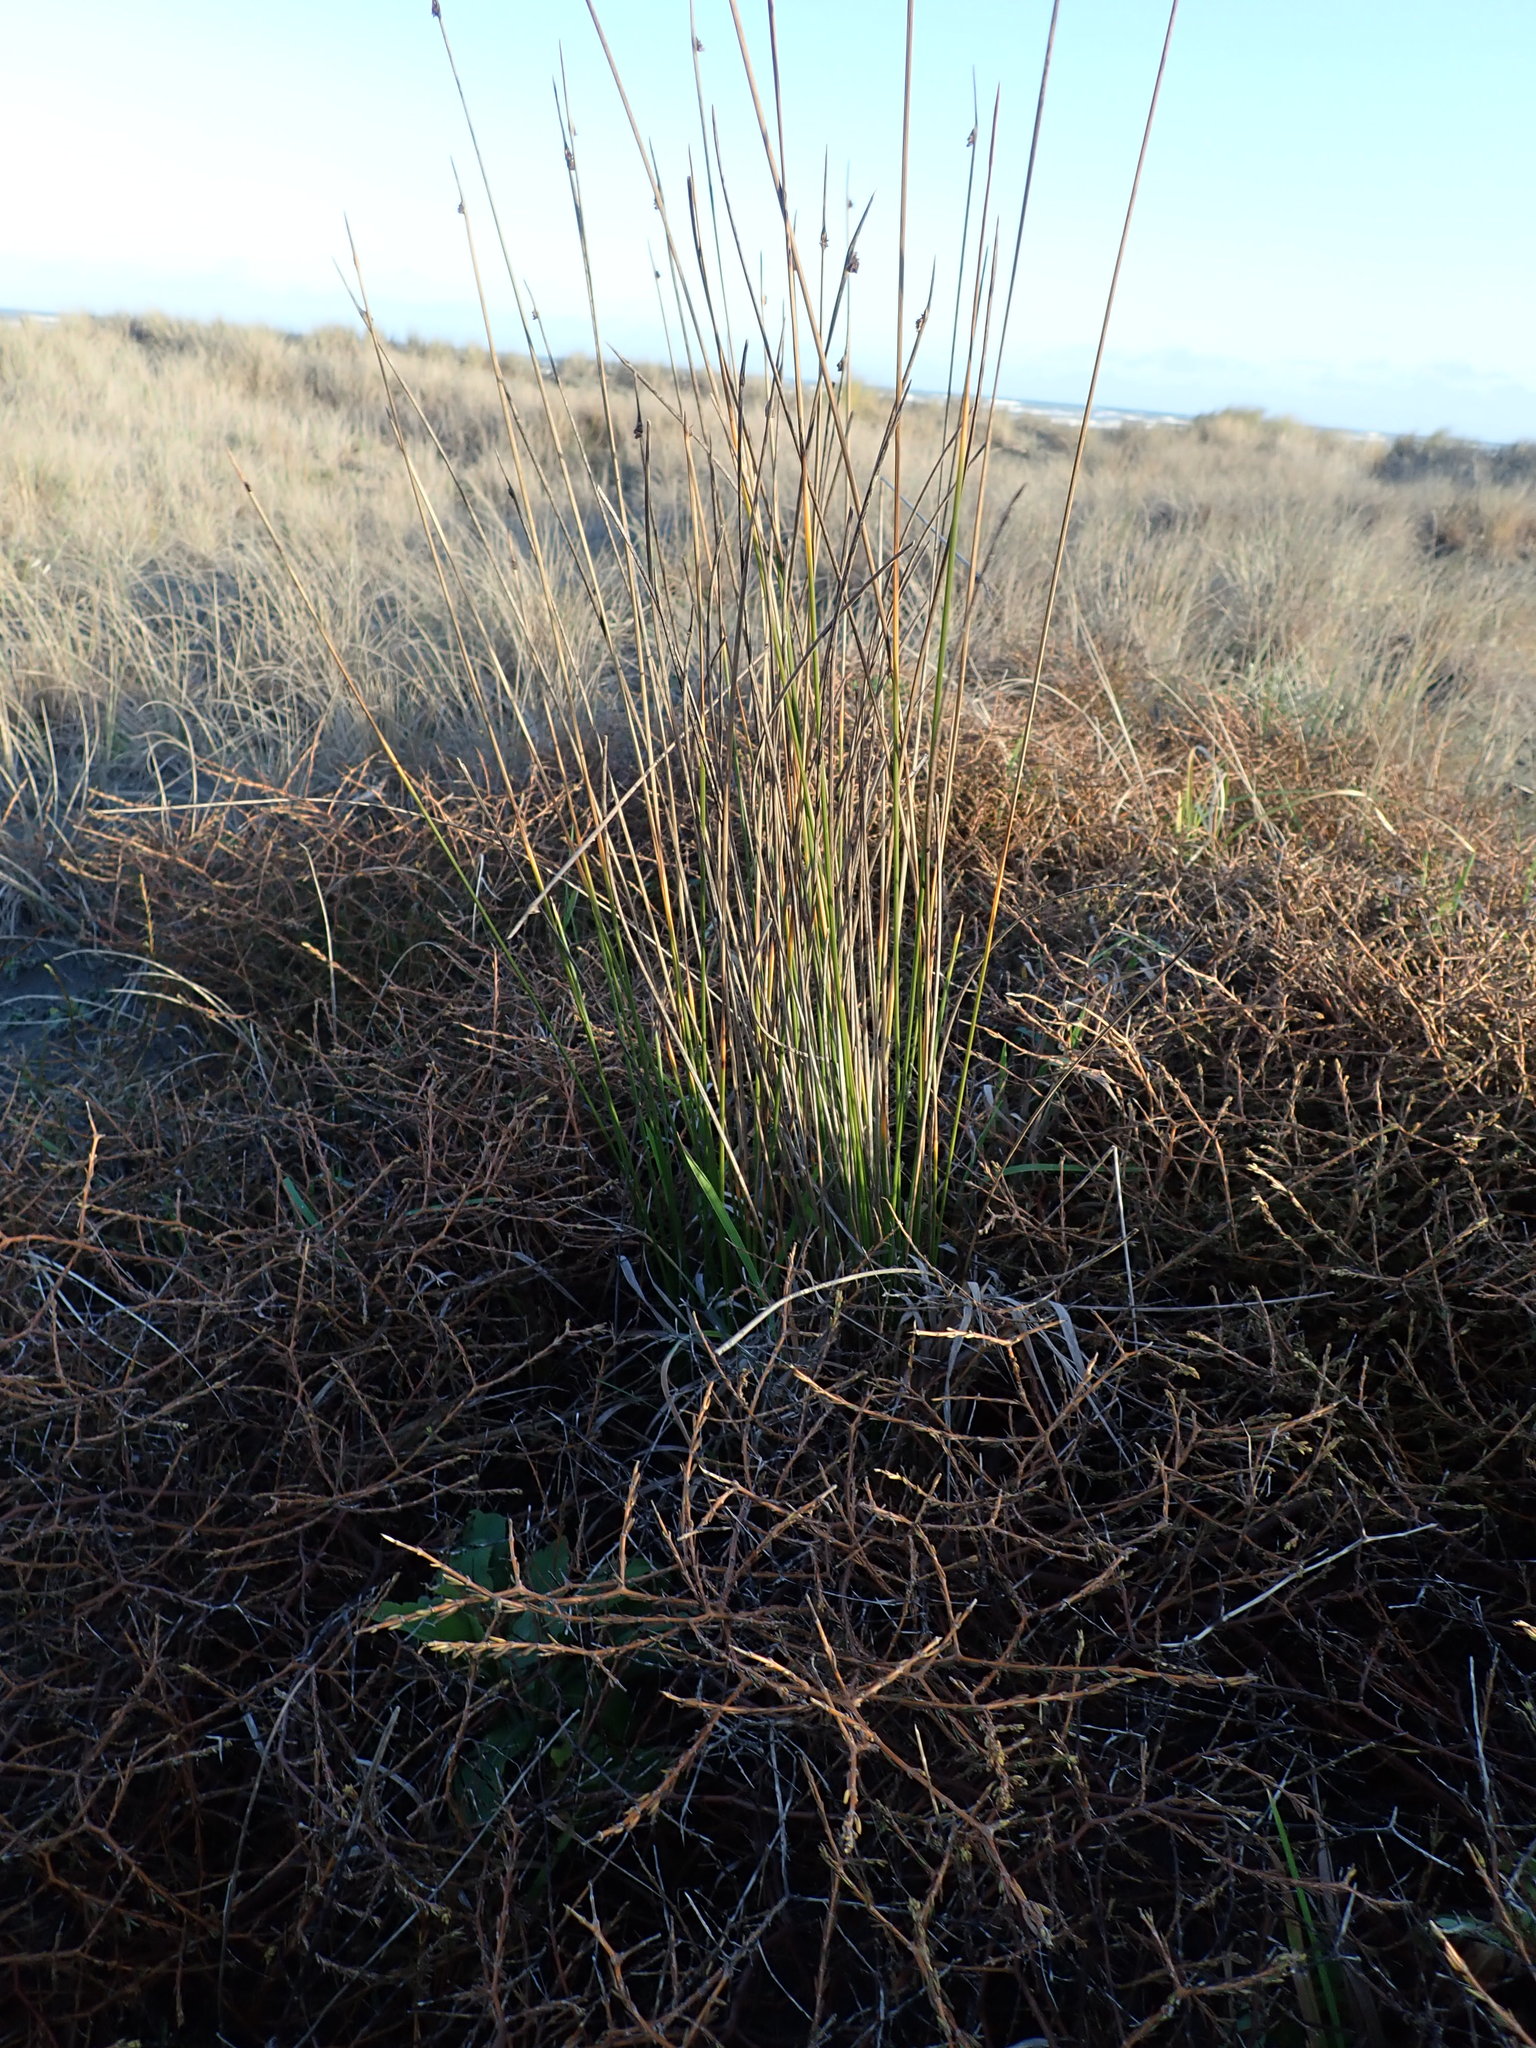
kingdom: Plantae
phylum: Tracheophyta
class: Magnoliopsida
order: Gentianales
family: Rubiaceae
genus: Coprosma
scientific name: Coprosma acerosa
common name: Sand coprosma
